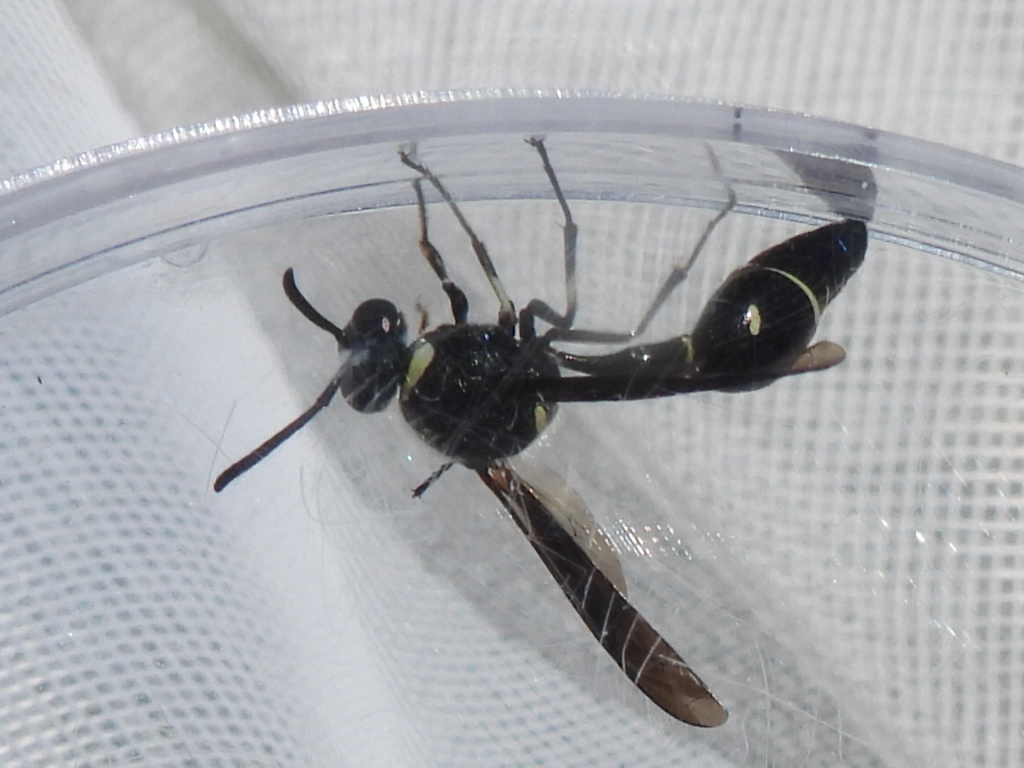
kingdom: Animalia
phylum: Arthropoda
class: Insecta
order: Hymenoptera
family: Vespidae
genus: Eumenes
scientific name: Eumenes fraternus
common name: Fraternal potter wasp
